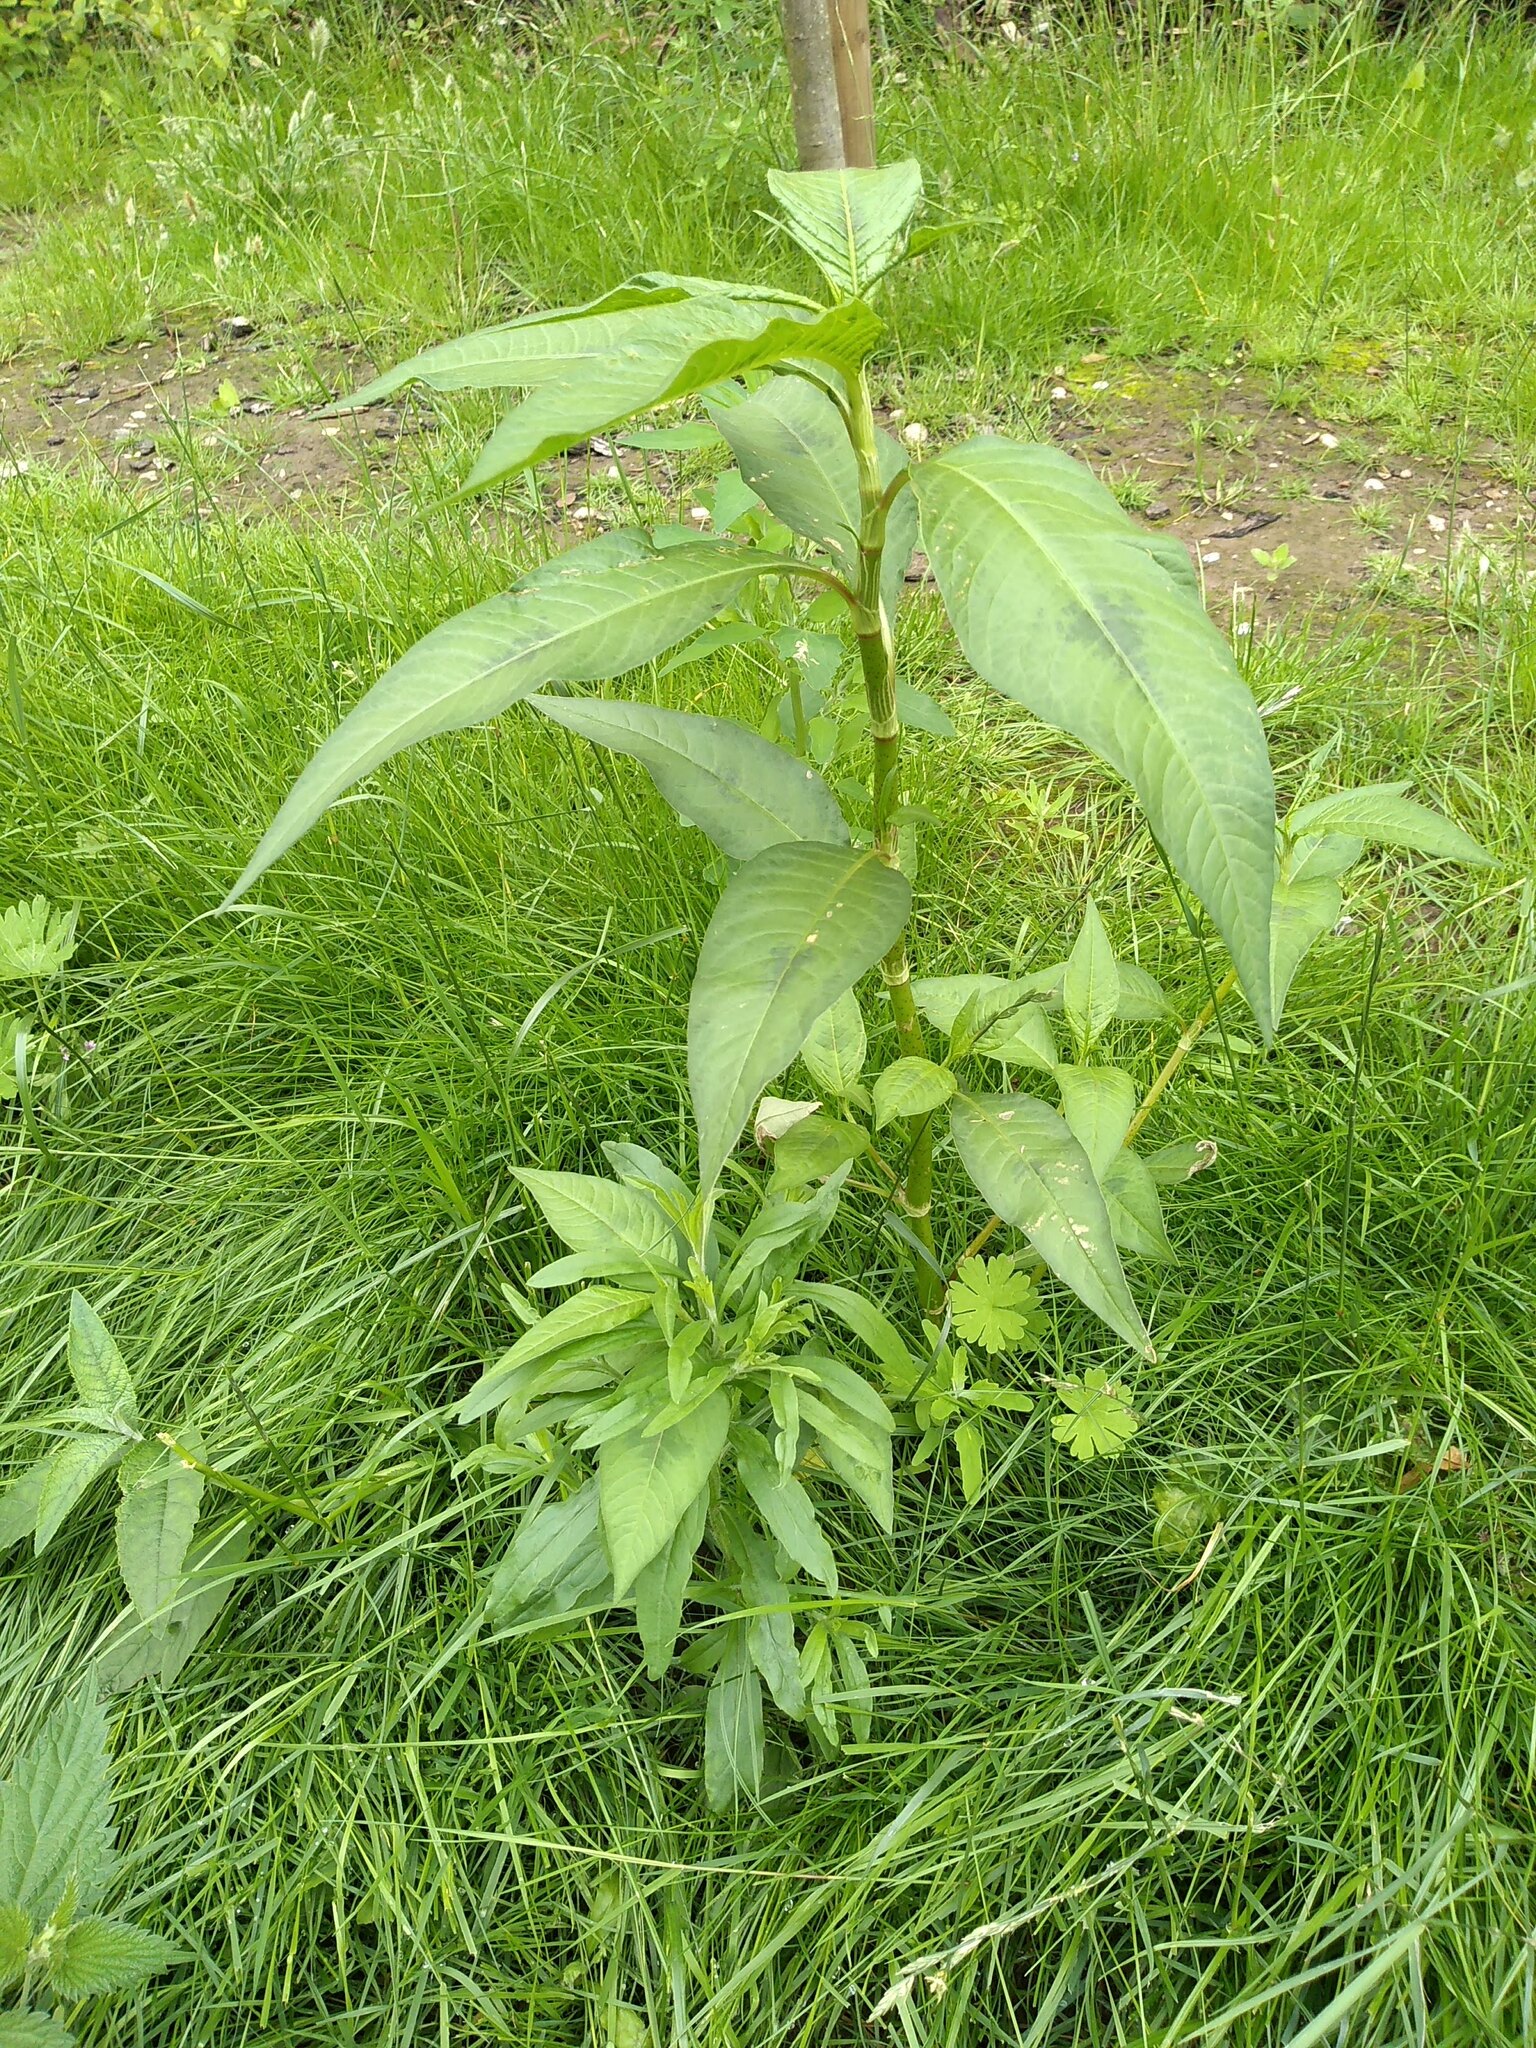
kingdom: Plantae
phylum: Tracheophyta
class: Magnoliopsida
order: Caryophyllales
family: Polygonaceae
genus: Persicaria
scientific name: Persicaria maculosa
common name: Redshank
